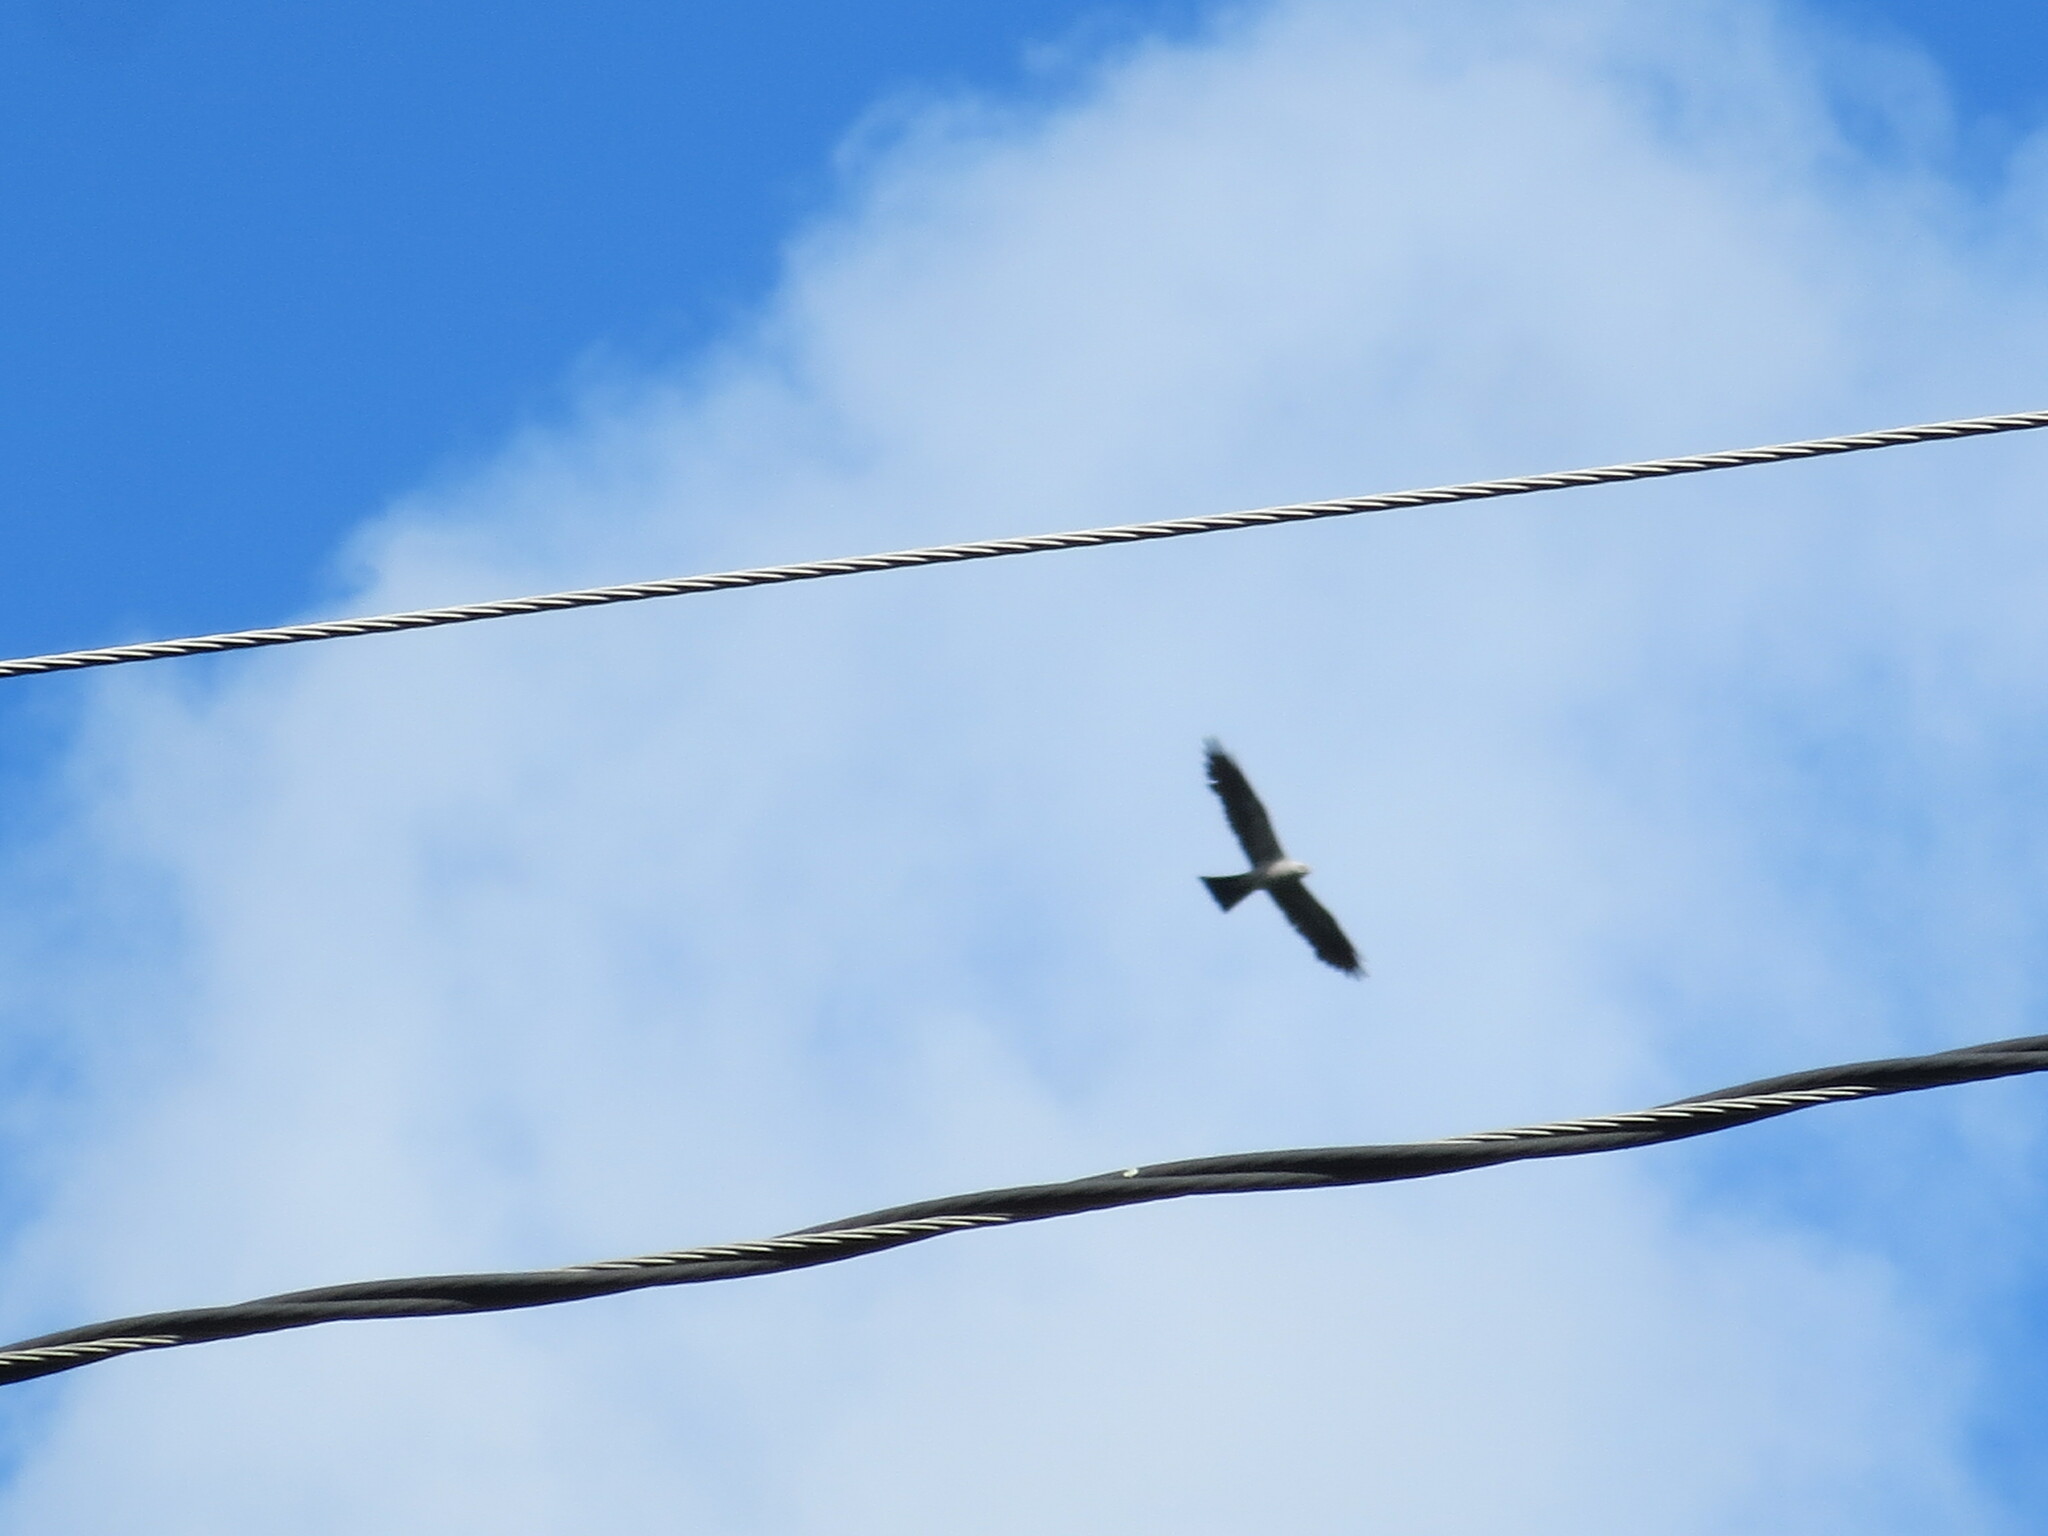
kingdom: Animalia
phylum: Chordata
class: Aves
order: Accipitriformes
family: Accipitridae
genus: Ictinia
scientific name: Ictinia mississippiensis
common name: Mississippi kite
